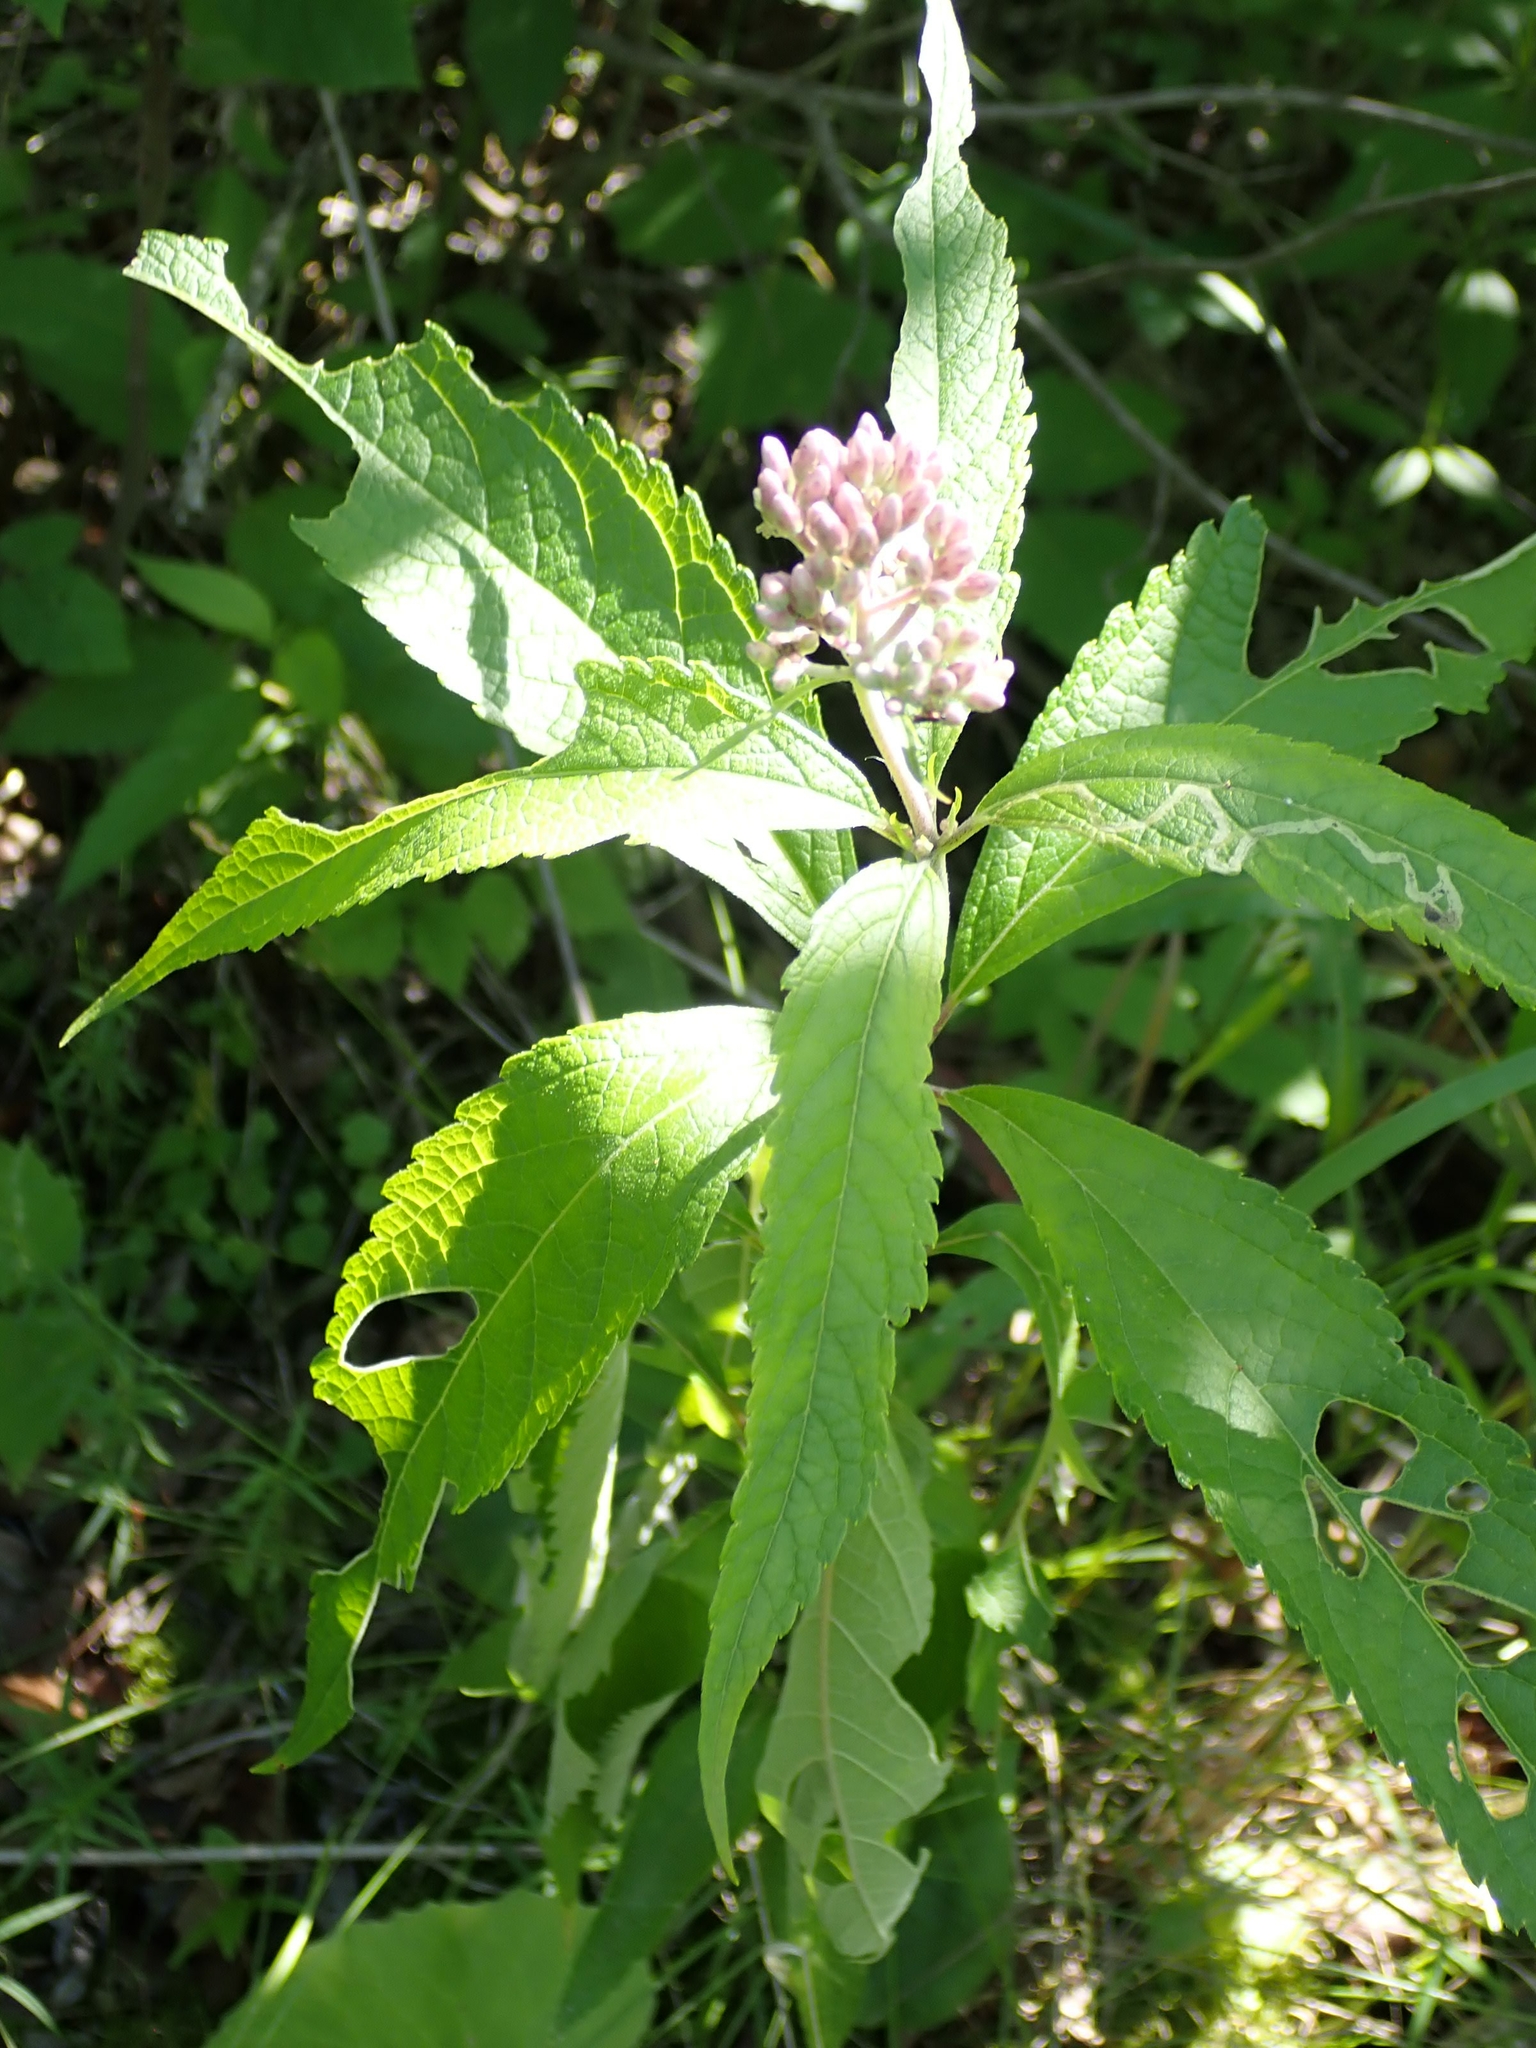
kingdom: Plantae
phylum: Tracheophyta
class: Magnoliopsida
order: Asterales
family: Asteraceae
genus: Eutrochium
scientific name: Eutrochium maculatum
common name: Spotted joe pye weed
